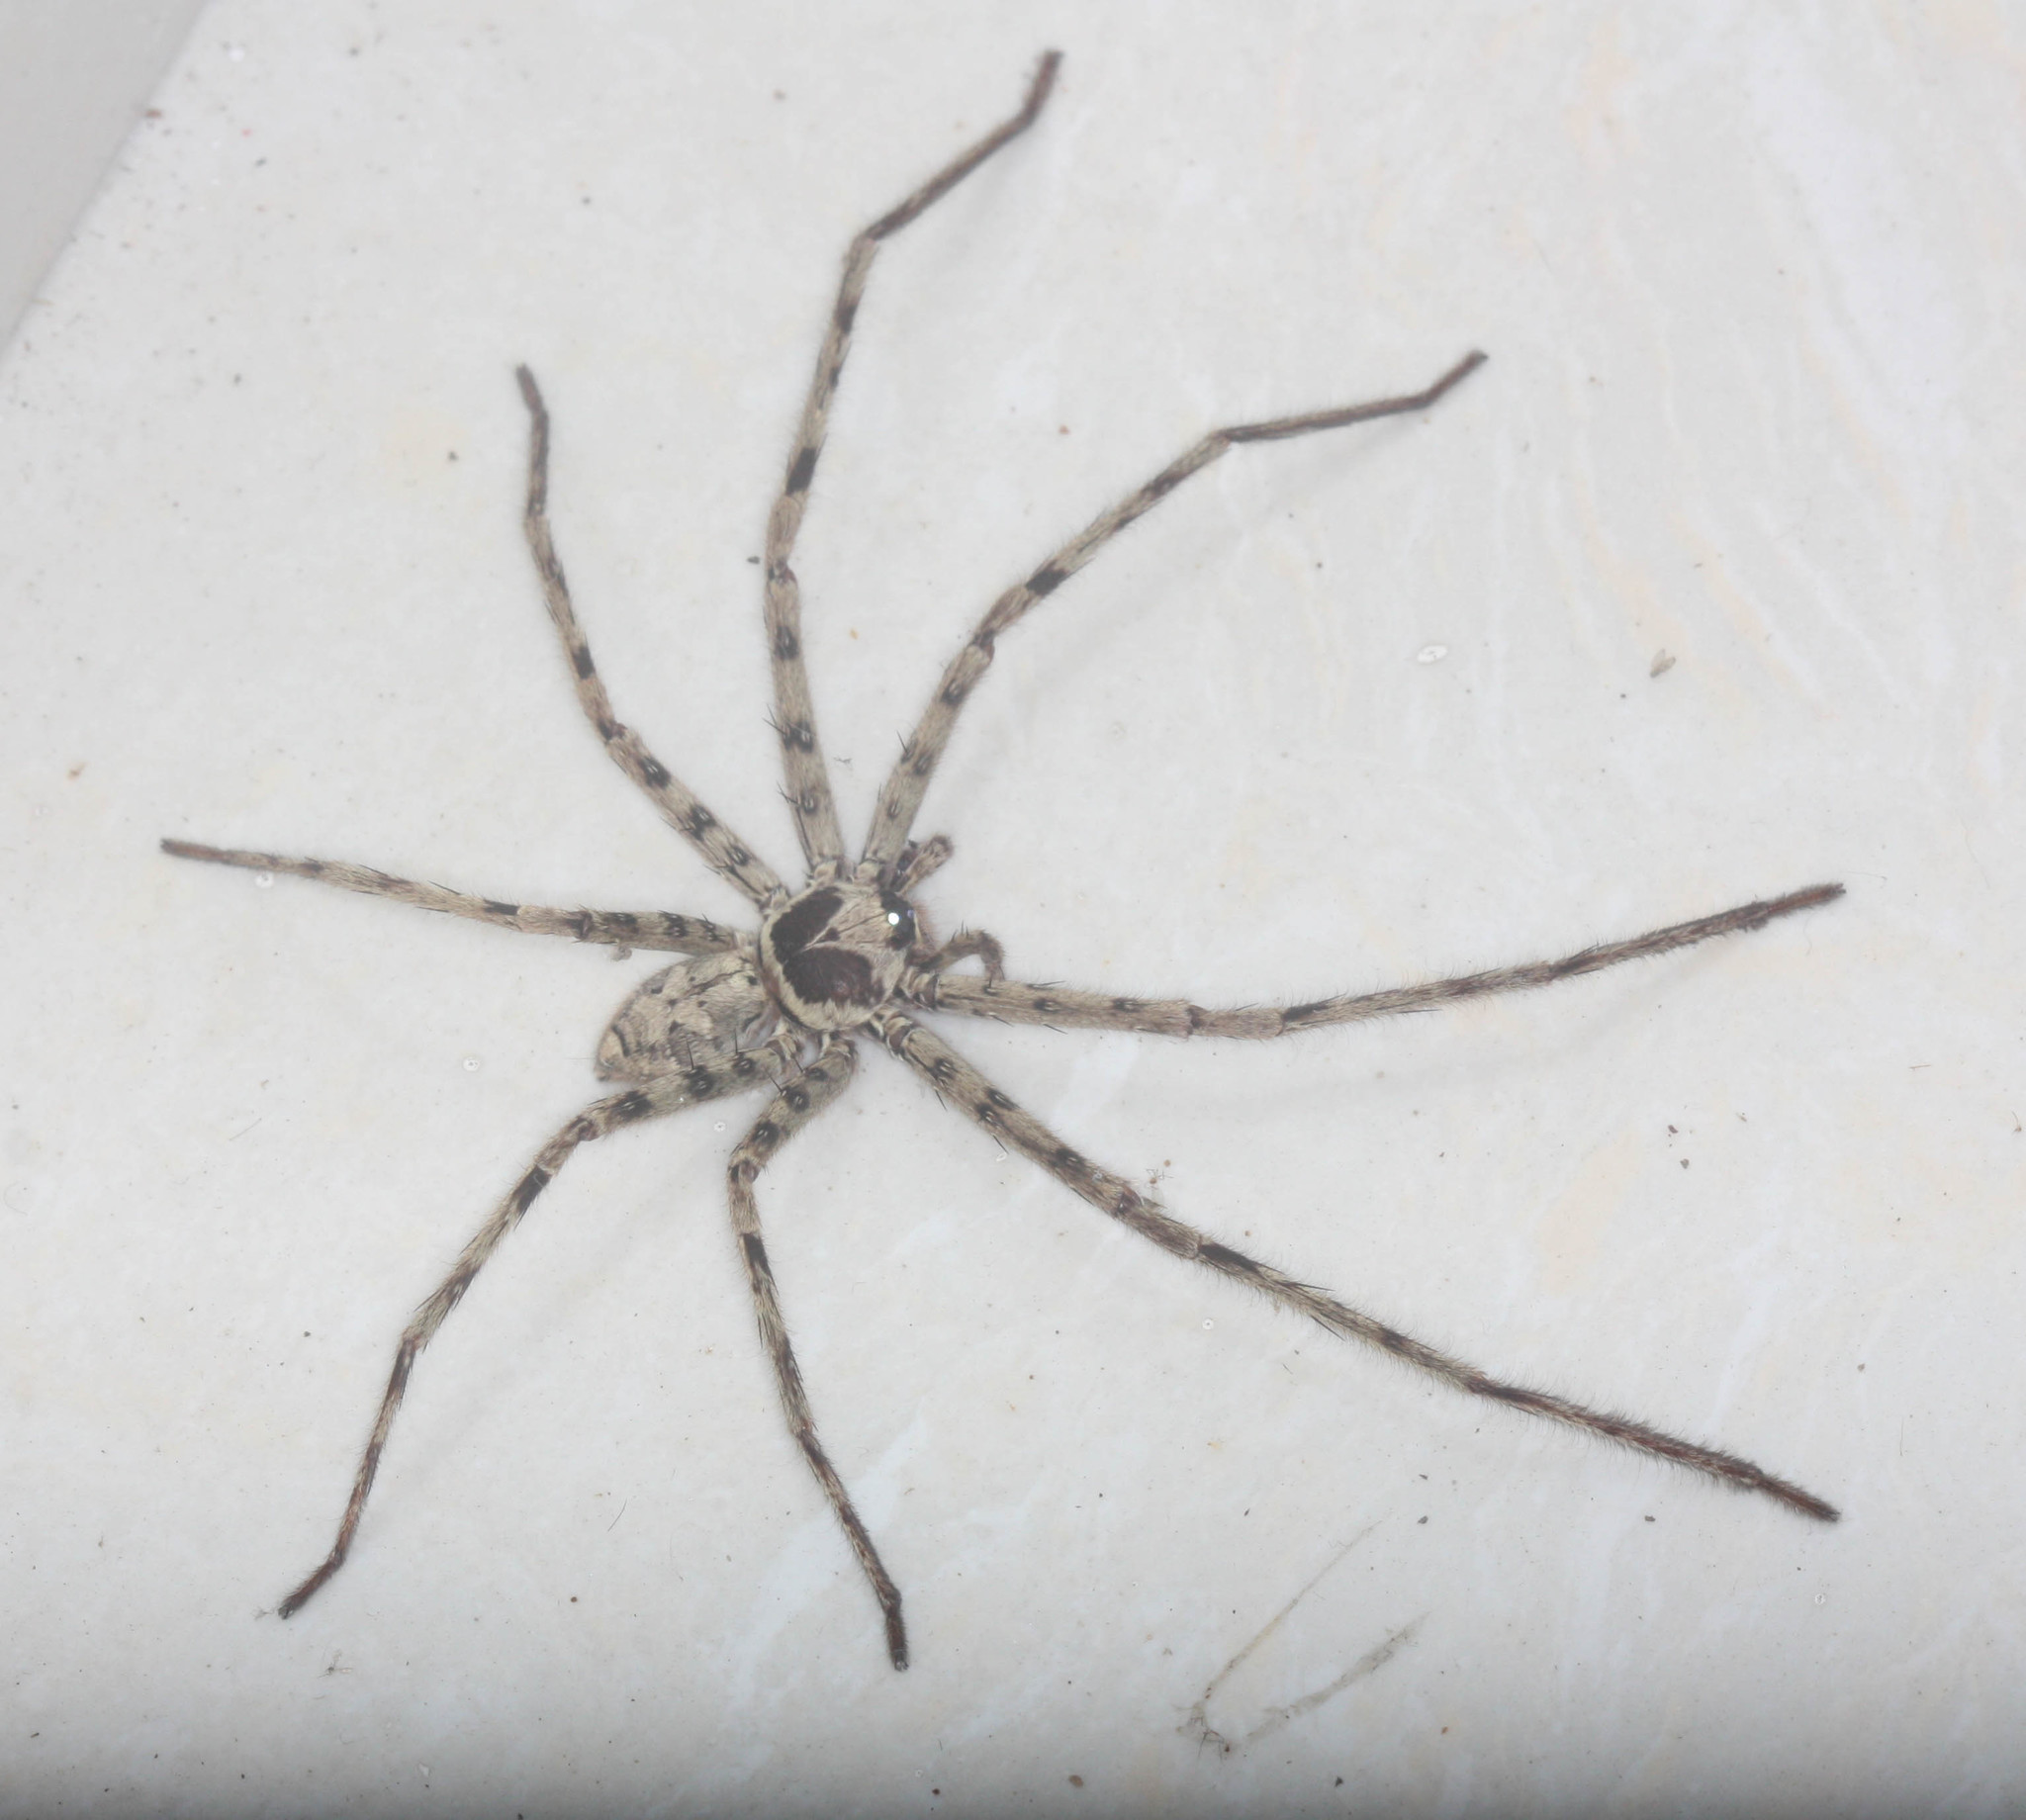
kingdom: Animalia
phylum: Arthropoda
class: Arachnida
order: Araneae
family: Sparassidae
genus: Heteropoda
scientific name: Heteropoda venatoria
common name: Huntsman spider
